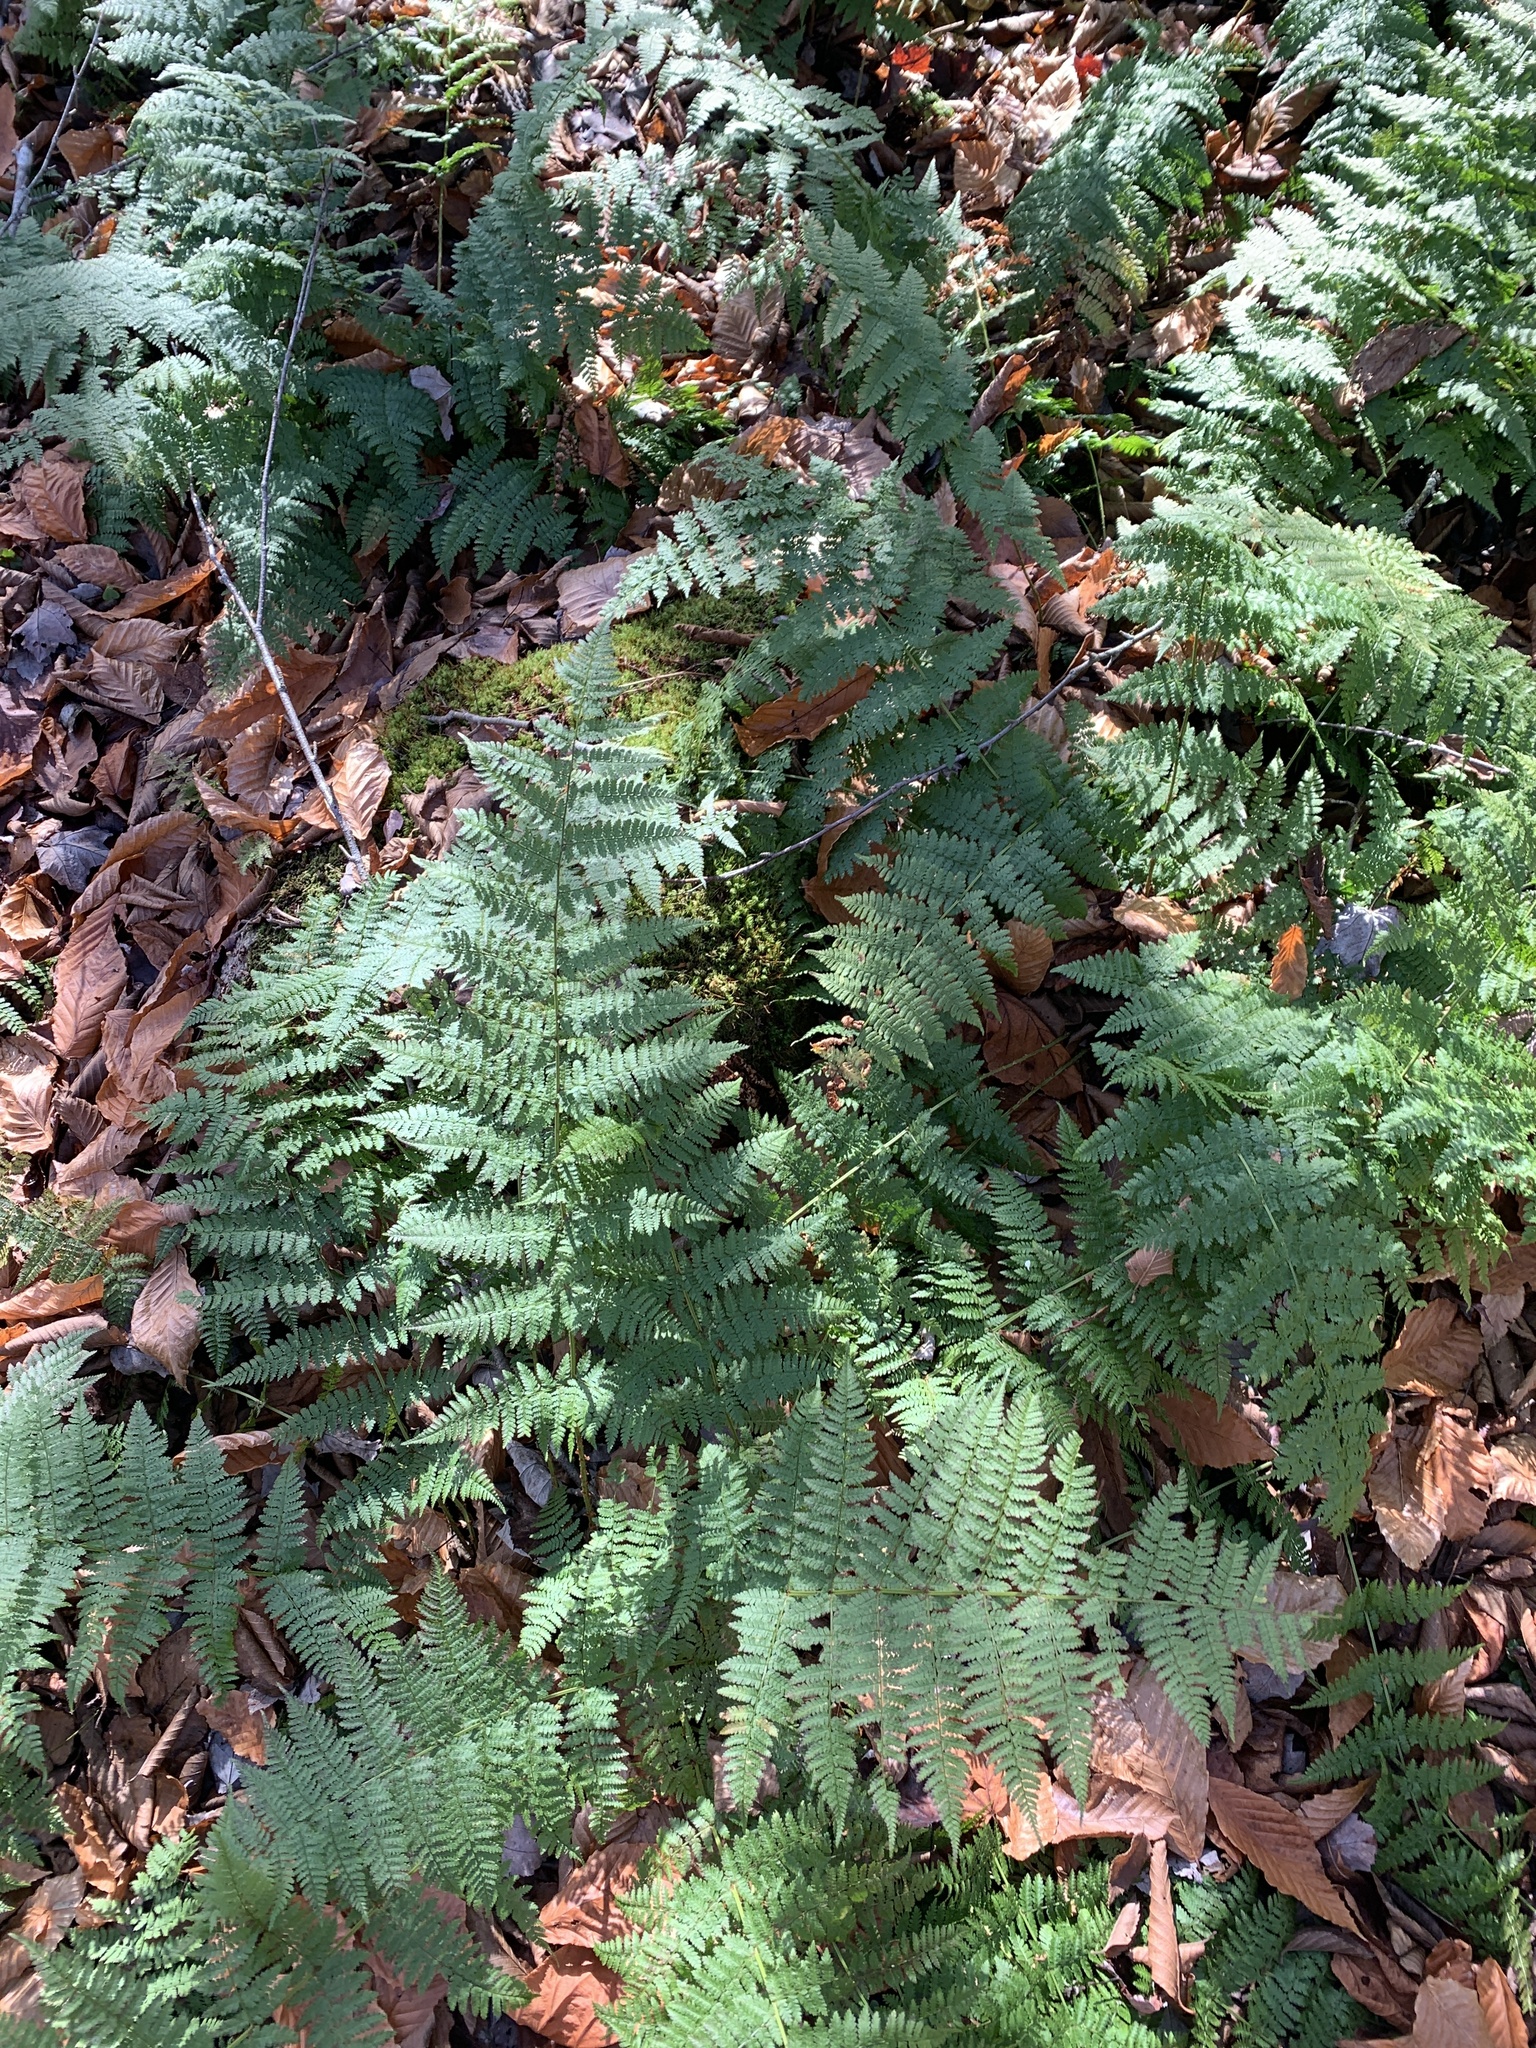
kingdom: Plantae
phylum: Tracheophyta
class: Polypodiopsida
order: Polypodiales
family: Dryopteridaceae
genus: Dryopteris
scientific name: Dryopteris intermedia
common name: Evergreen wood fern
